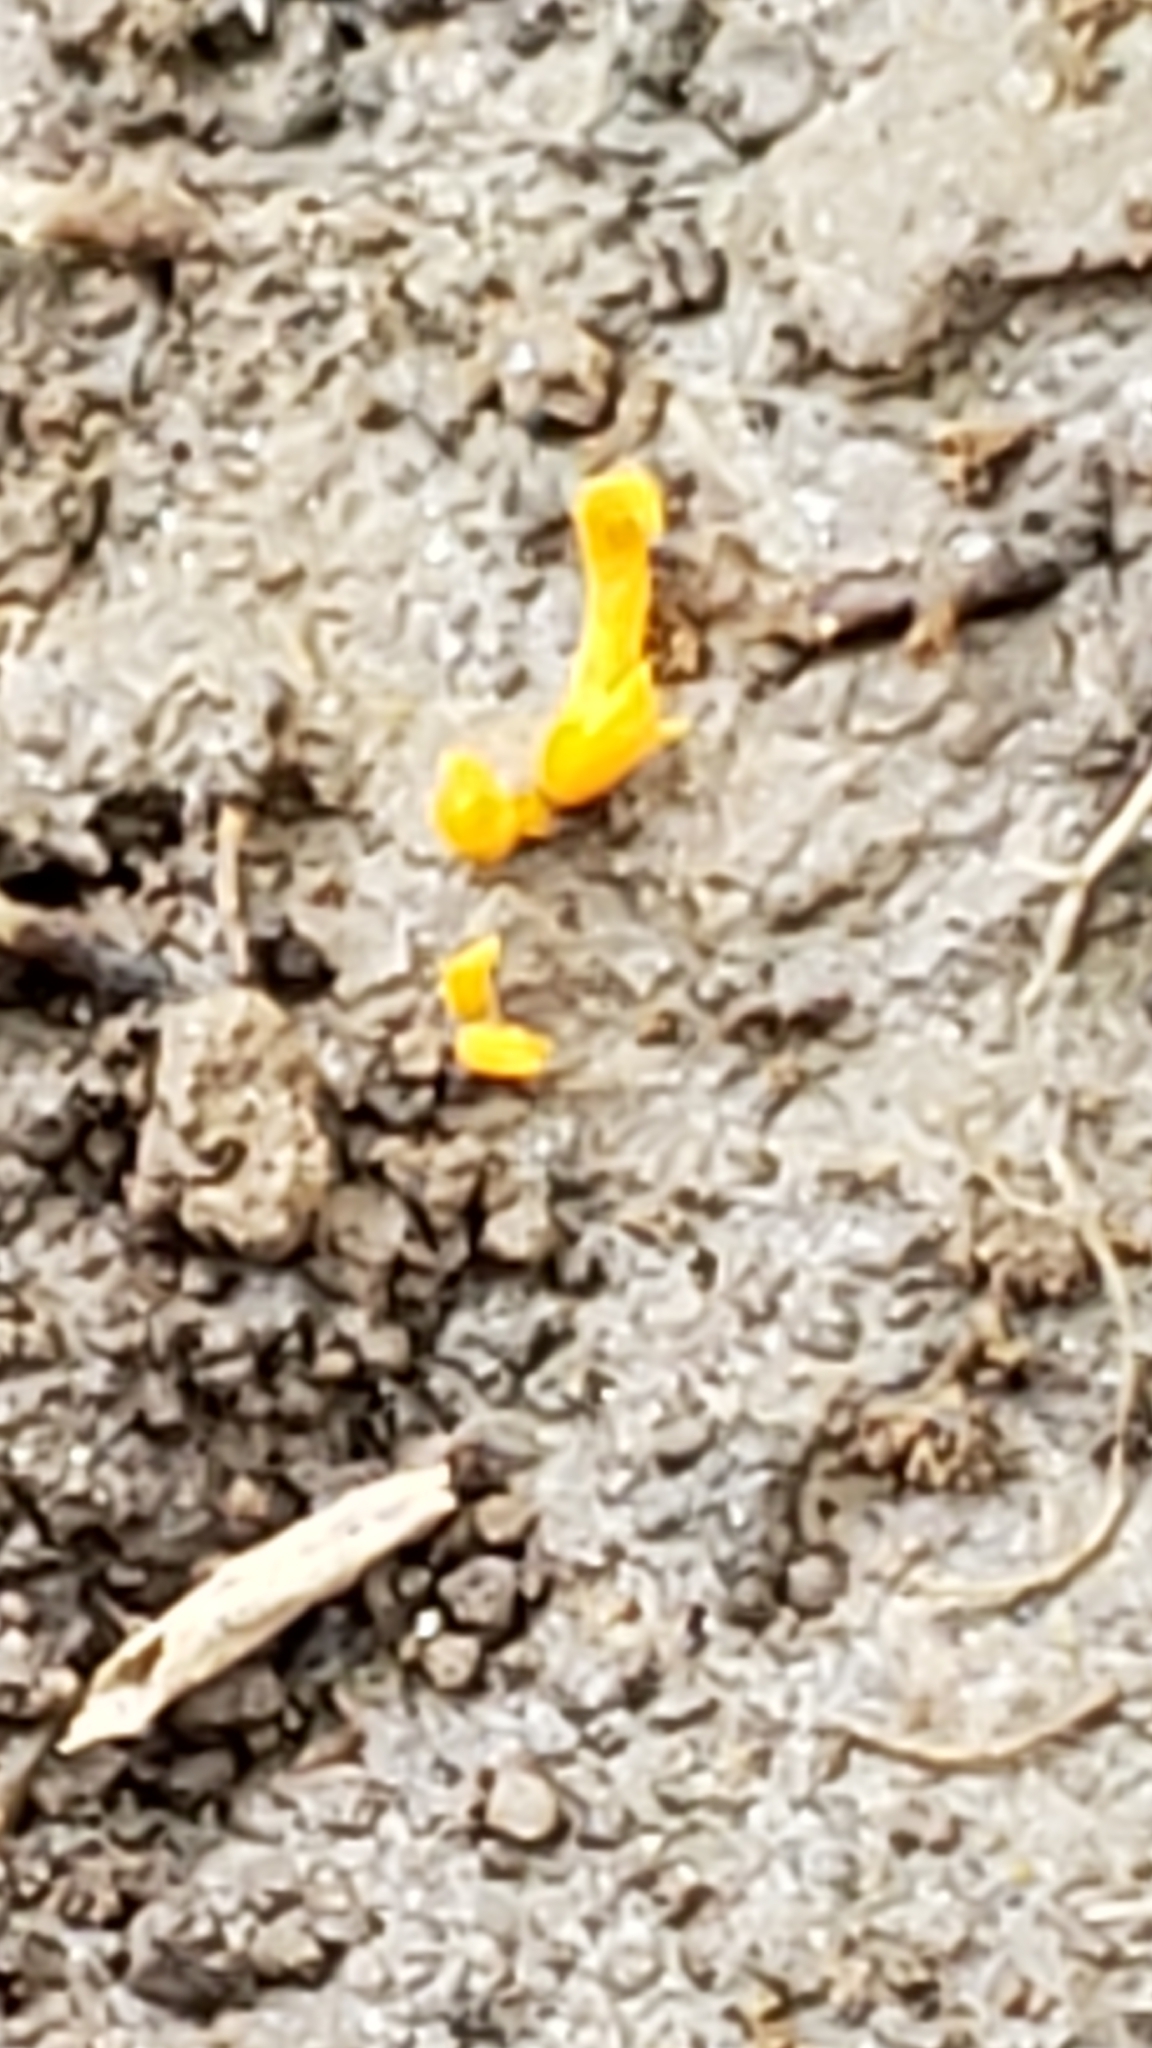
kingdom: Fungi
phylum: Basidiomycota
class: Agaricomycetes
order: Agaricales
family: Clavariaceae
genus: Clavulinopsis
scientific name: Clavulinopsis laeticolor
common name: Handsome club
